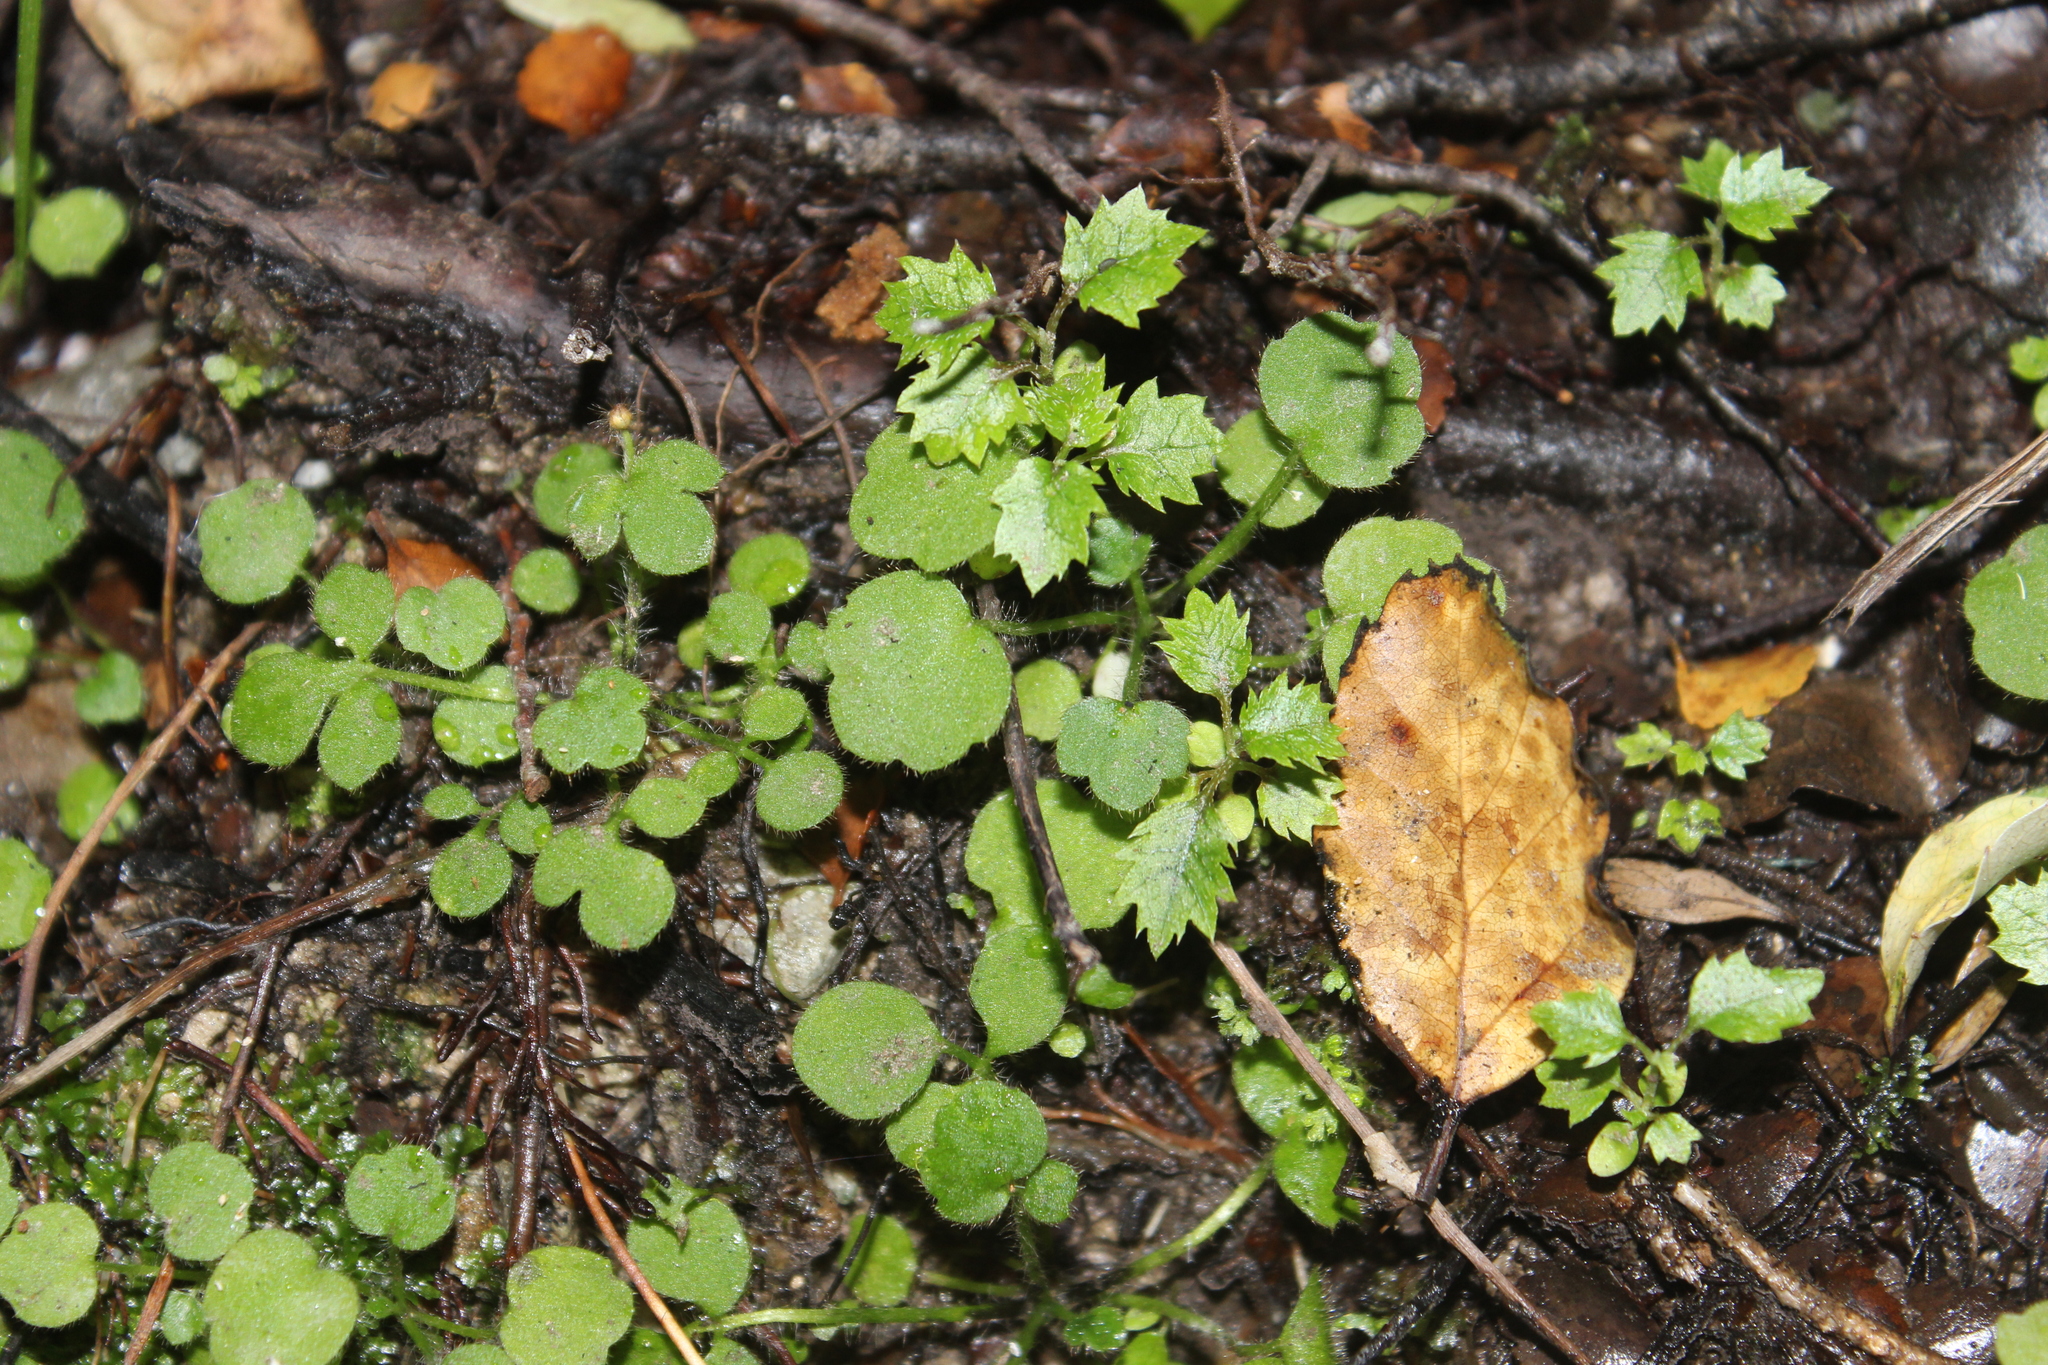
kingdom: Plantae
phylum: Tracheophyta
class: Magnoliopsida
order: Ranunculales
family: Ranunculaceae
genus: Ranunculus
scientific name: Ranunculus reflexus
